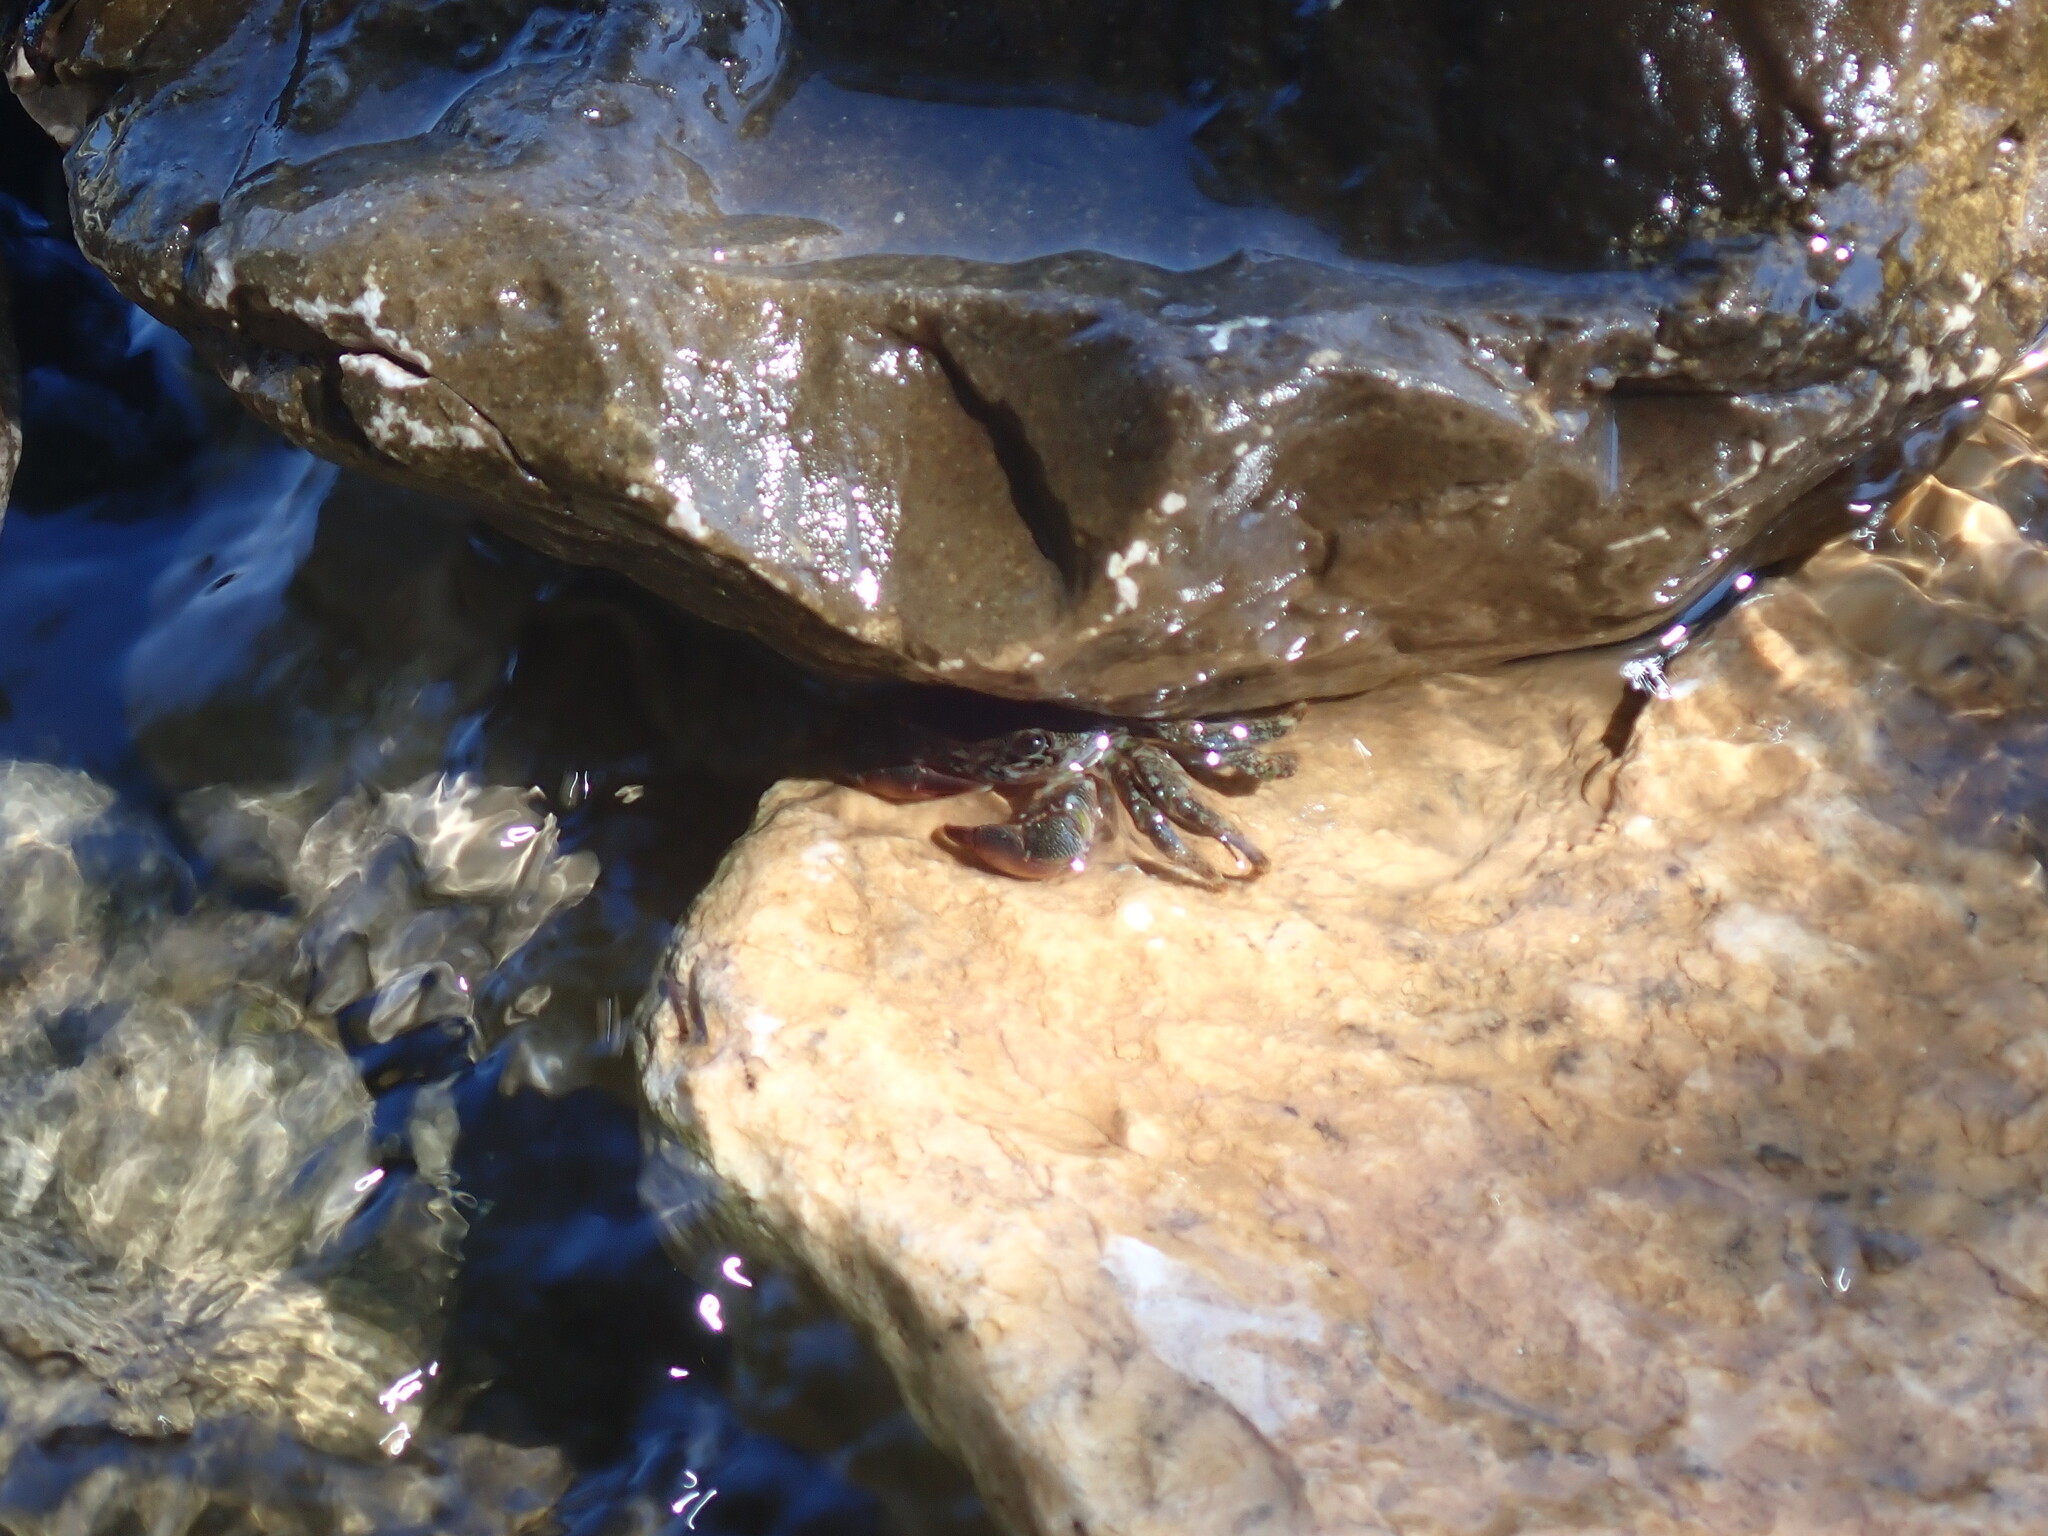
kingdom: Animalia
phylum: Arthropoda
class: Malacostraca
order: Decapoda
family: Grapsidae
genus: Pachygrapsus
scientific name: Pachygrapsus marmoratus
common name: Marbled rock crab
